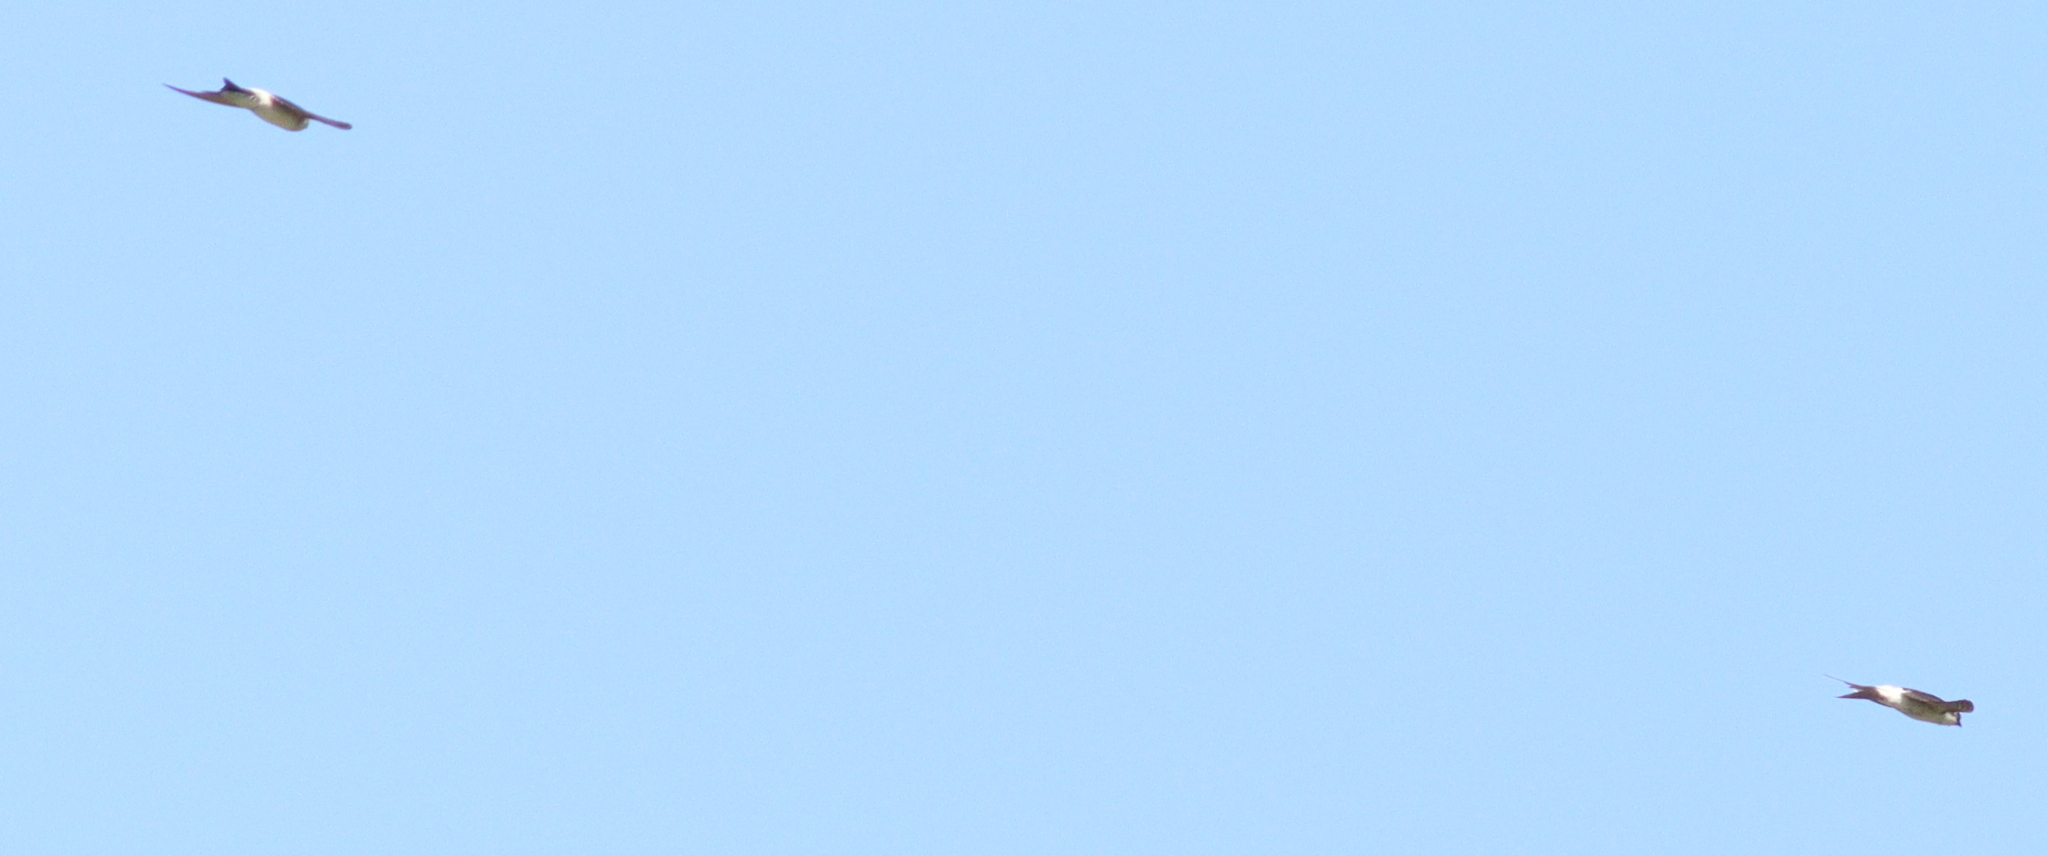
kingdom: Animalia
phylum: Chordata
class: Aves
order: Passeriformes
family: Hirundinidae
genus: Delichon
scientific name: Delichon urbicum
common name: Common house martin
